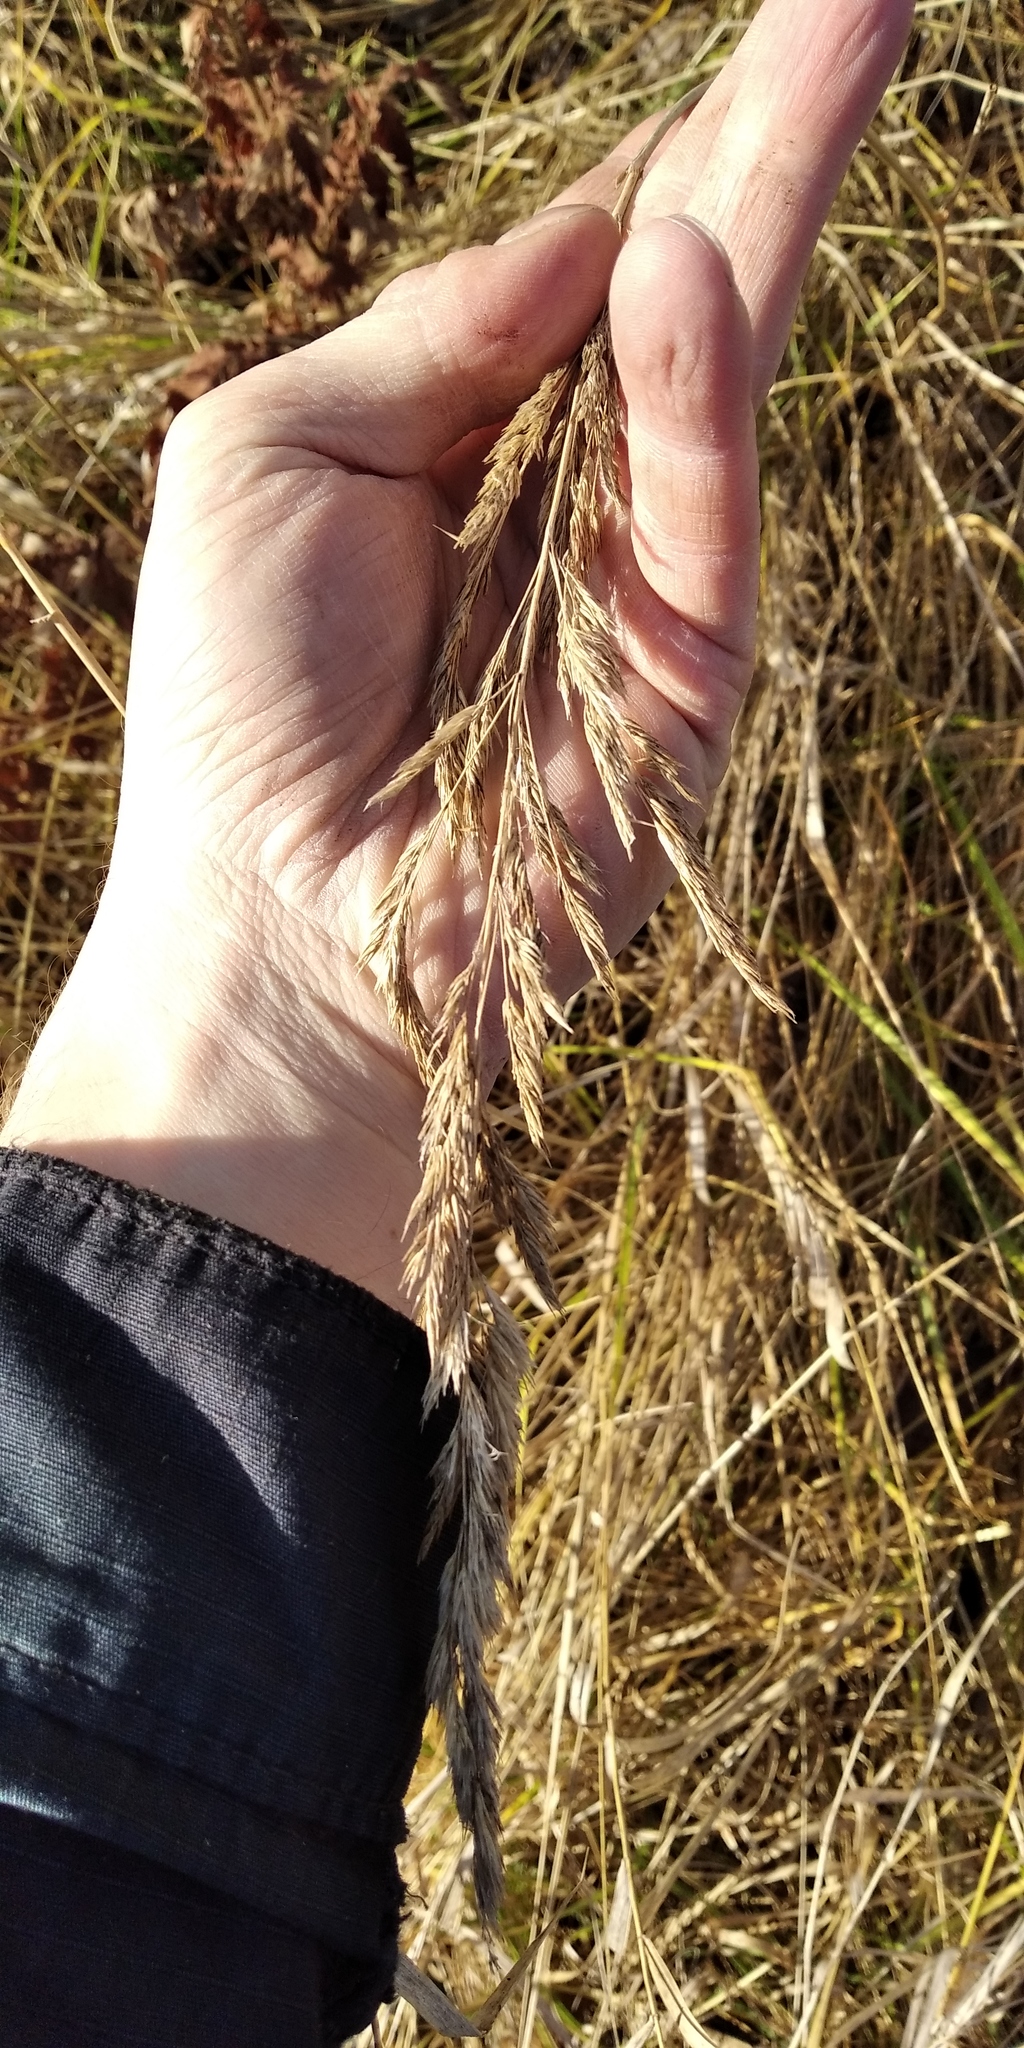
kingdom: Plantae
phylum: Tracheophyta
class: Liliopsida
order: Poales
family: Poaceae
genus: Calamagrostis
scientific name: Calamagrostis epigejos
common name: Wood small-reed
